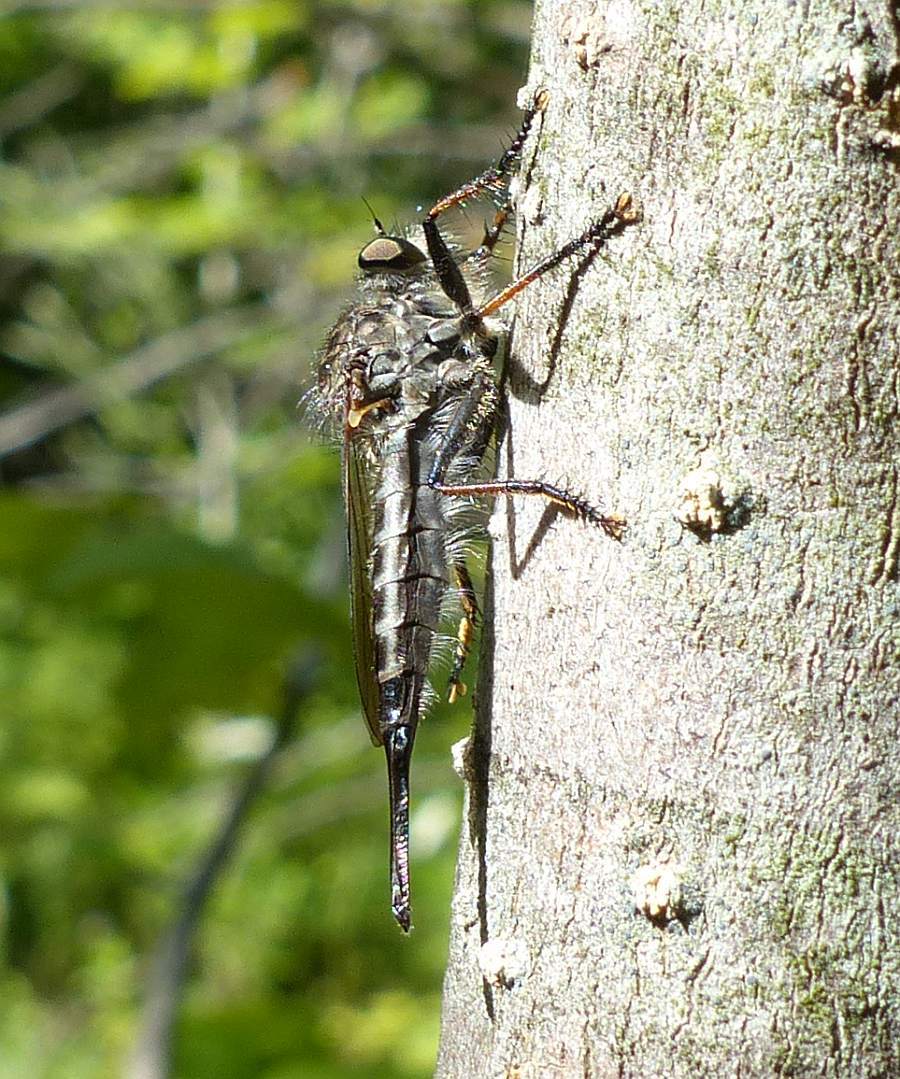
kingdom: Animalia
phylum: Arthropoda
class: Insecta
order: Diptera
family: Asilidae
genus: Efferia
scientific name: Efferia aestuans
